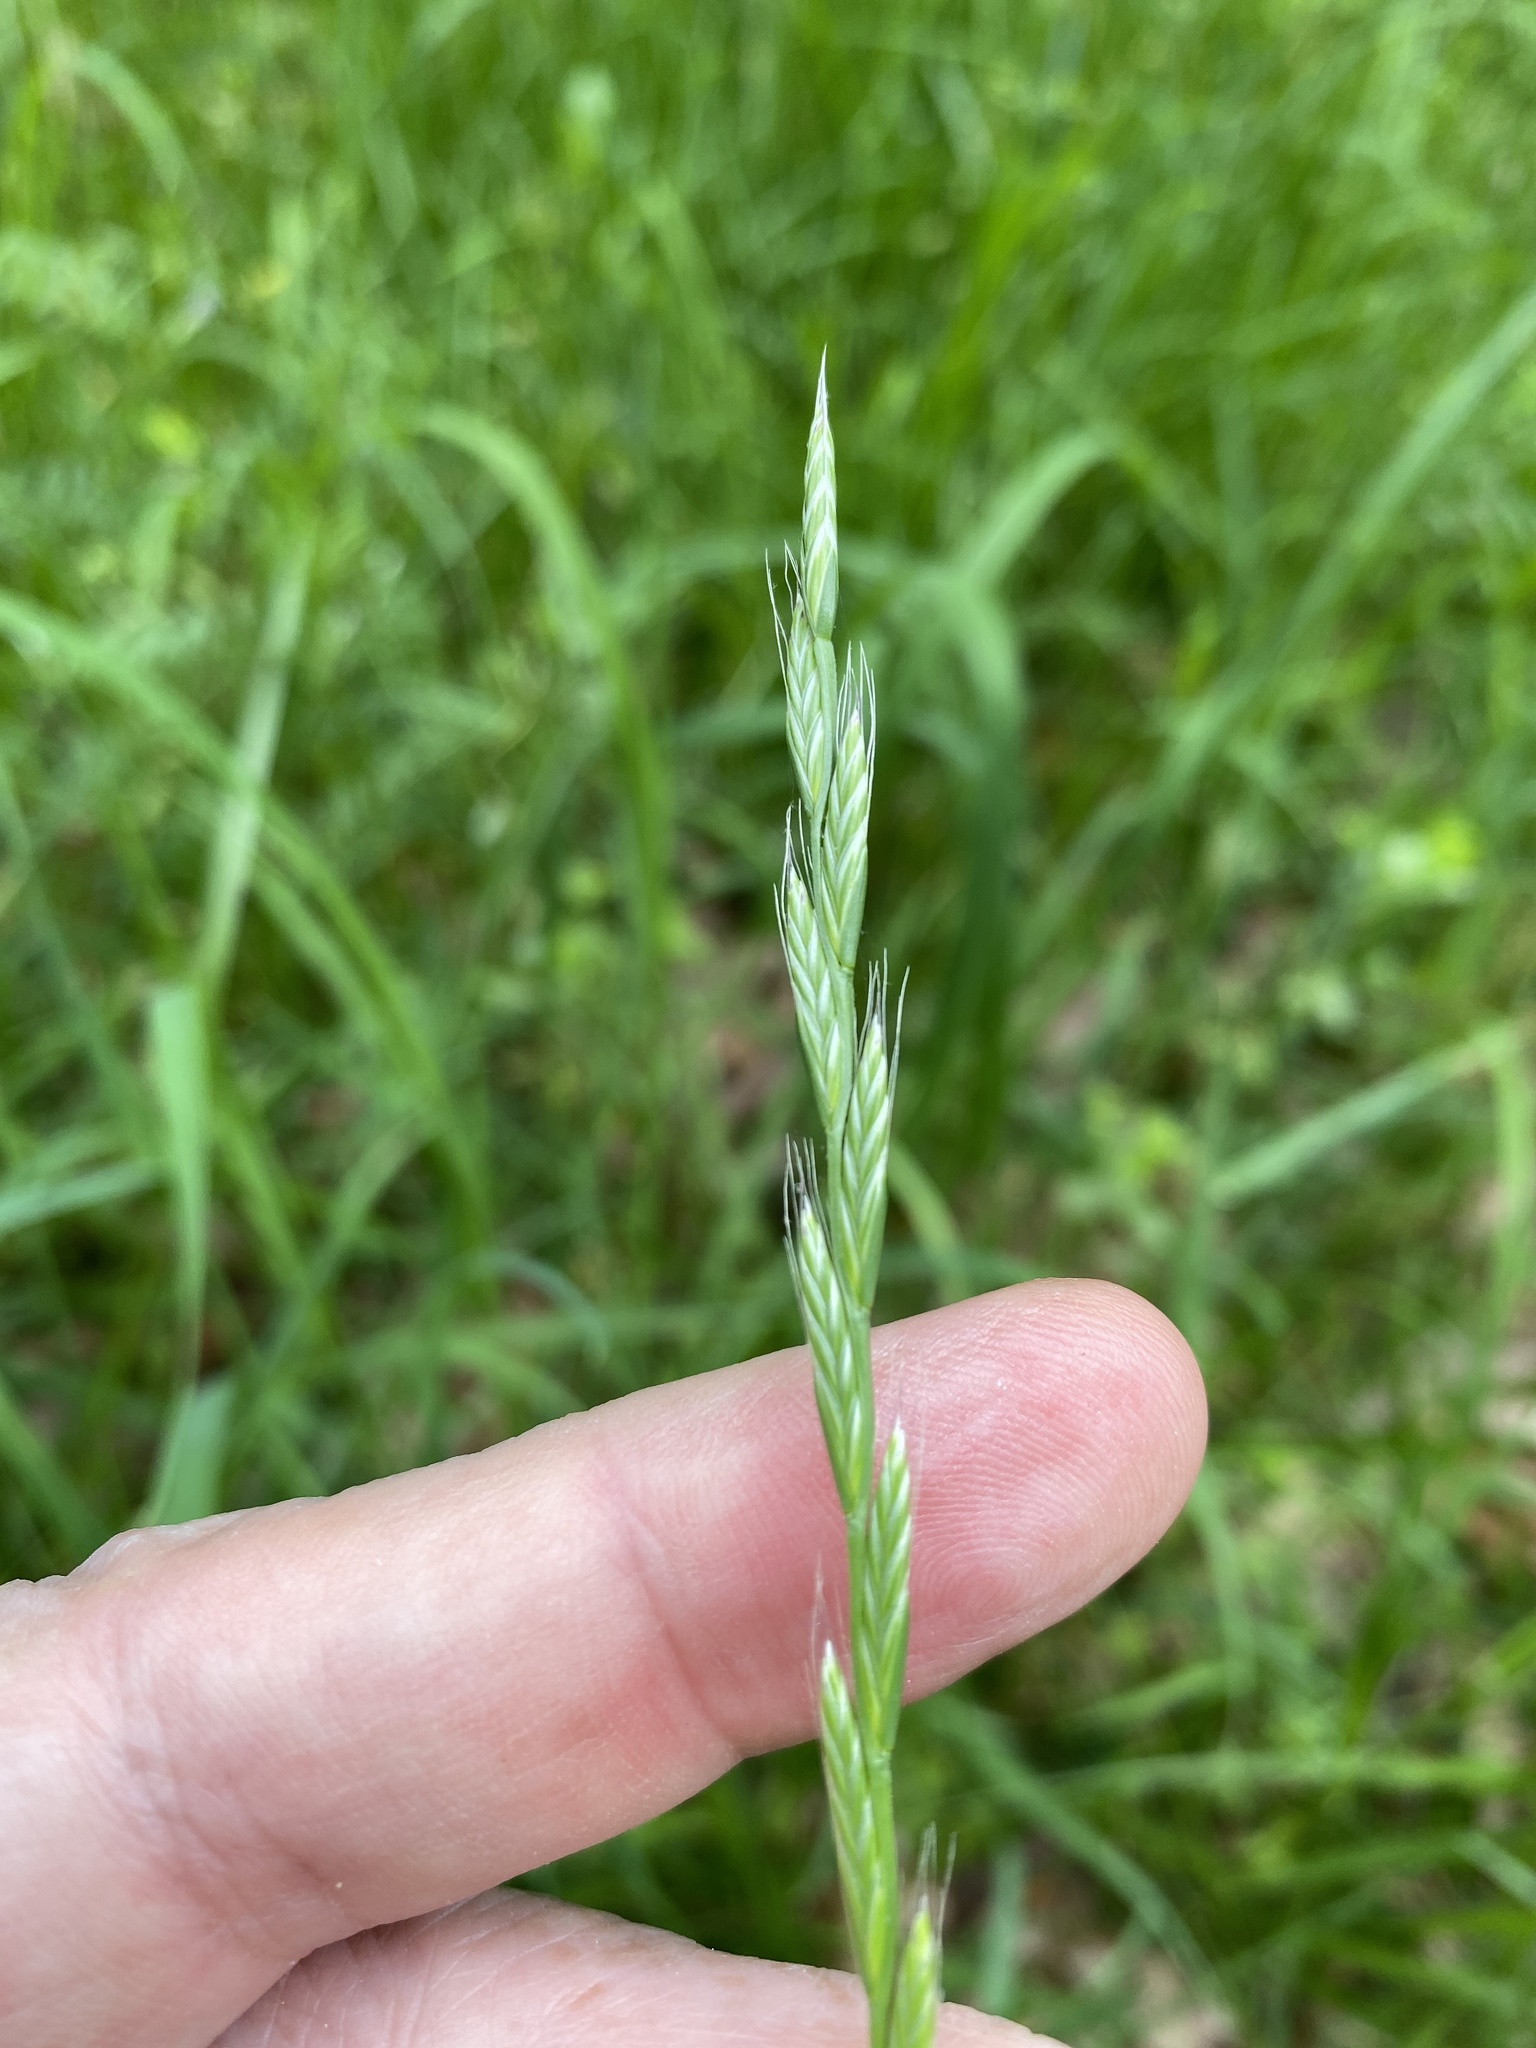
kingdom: Plantae
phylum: Tracheophyta
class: Liliopsida
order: Poales
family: Poaceae
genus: Lolium
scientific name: Lolium multiflorum
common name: Annual ryegrass
